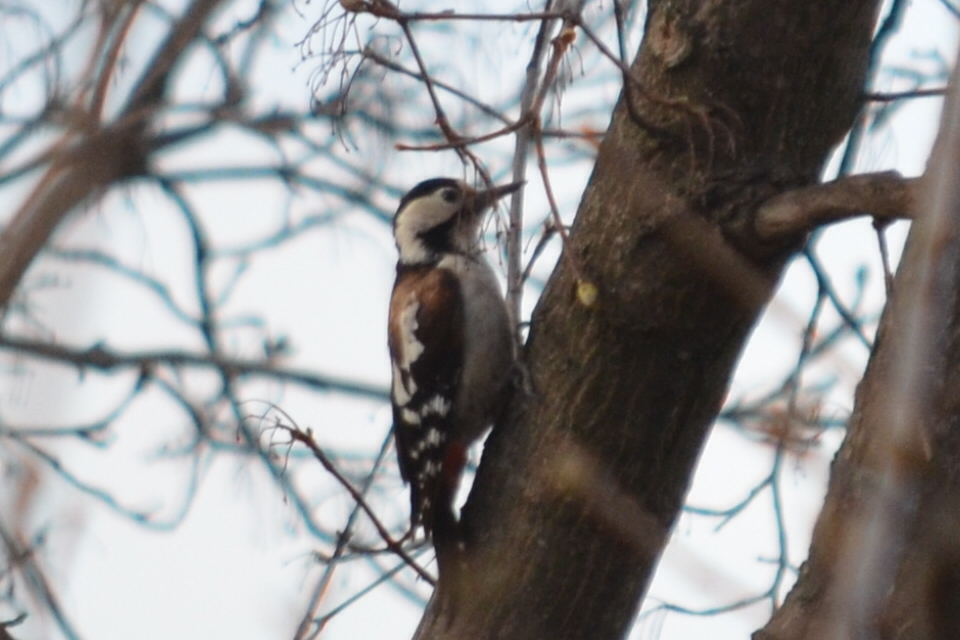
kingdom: Animalia
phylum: Chordata
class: Aves
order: Piciformes
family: Picidae
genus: Dendrocopos
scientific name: Dendrocopos syriacus
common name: Syrian woodpecker
